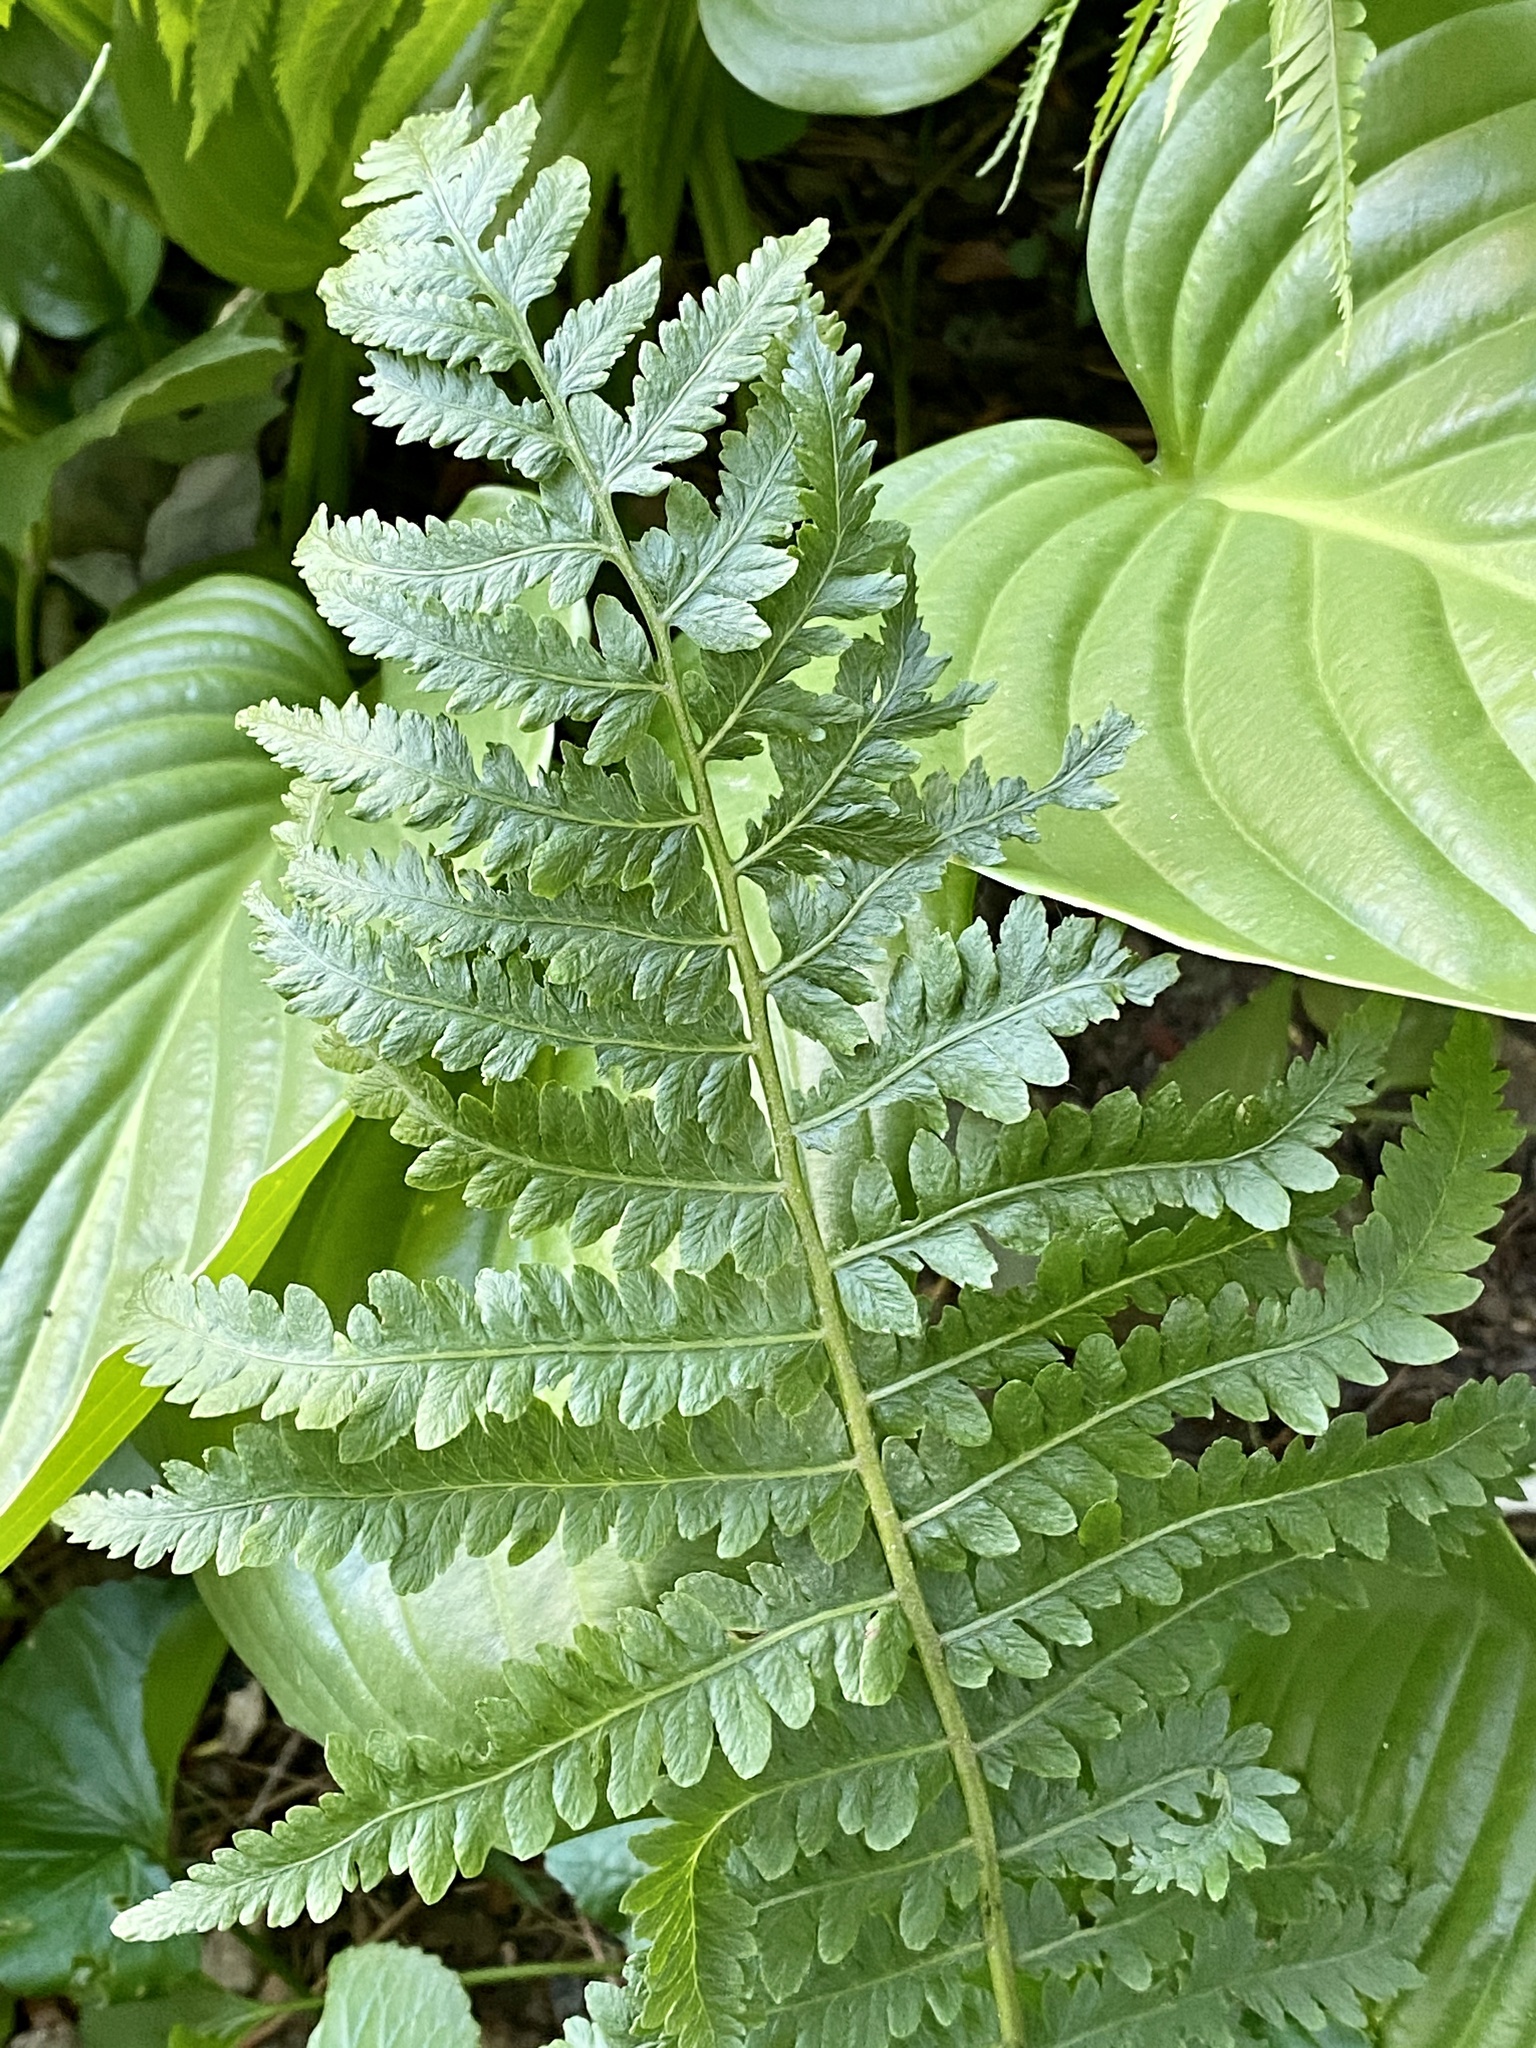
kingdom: Plantae
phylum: Tracheophyta
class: Polypodiopsida
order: Polypodiales
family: Onocleaceae
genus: Matteuccia
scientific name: Matteuccia struthiopteris
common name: Ostrich fern
